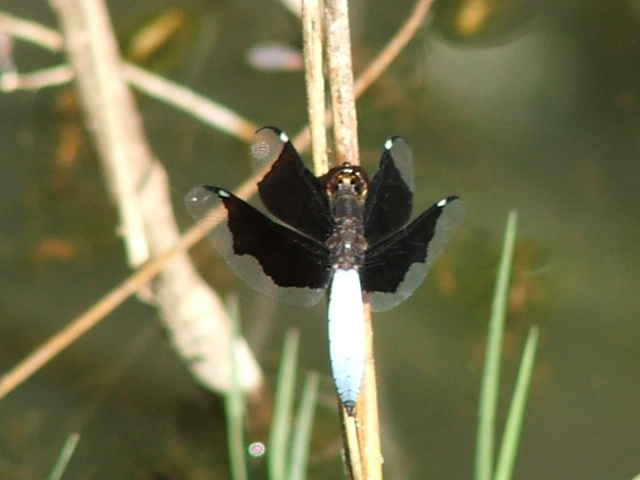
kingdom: Animalia
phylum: Arthropoda
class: Insecta
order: Odonata
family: Libellulidae
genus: Palpopleura
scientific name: Palpopleura lucia
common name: Lucia widow
